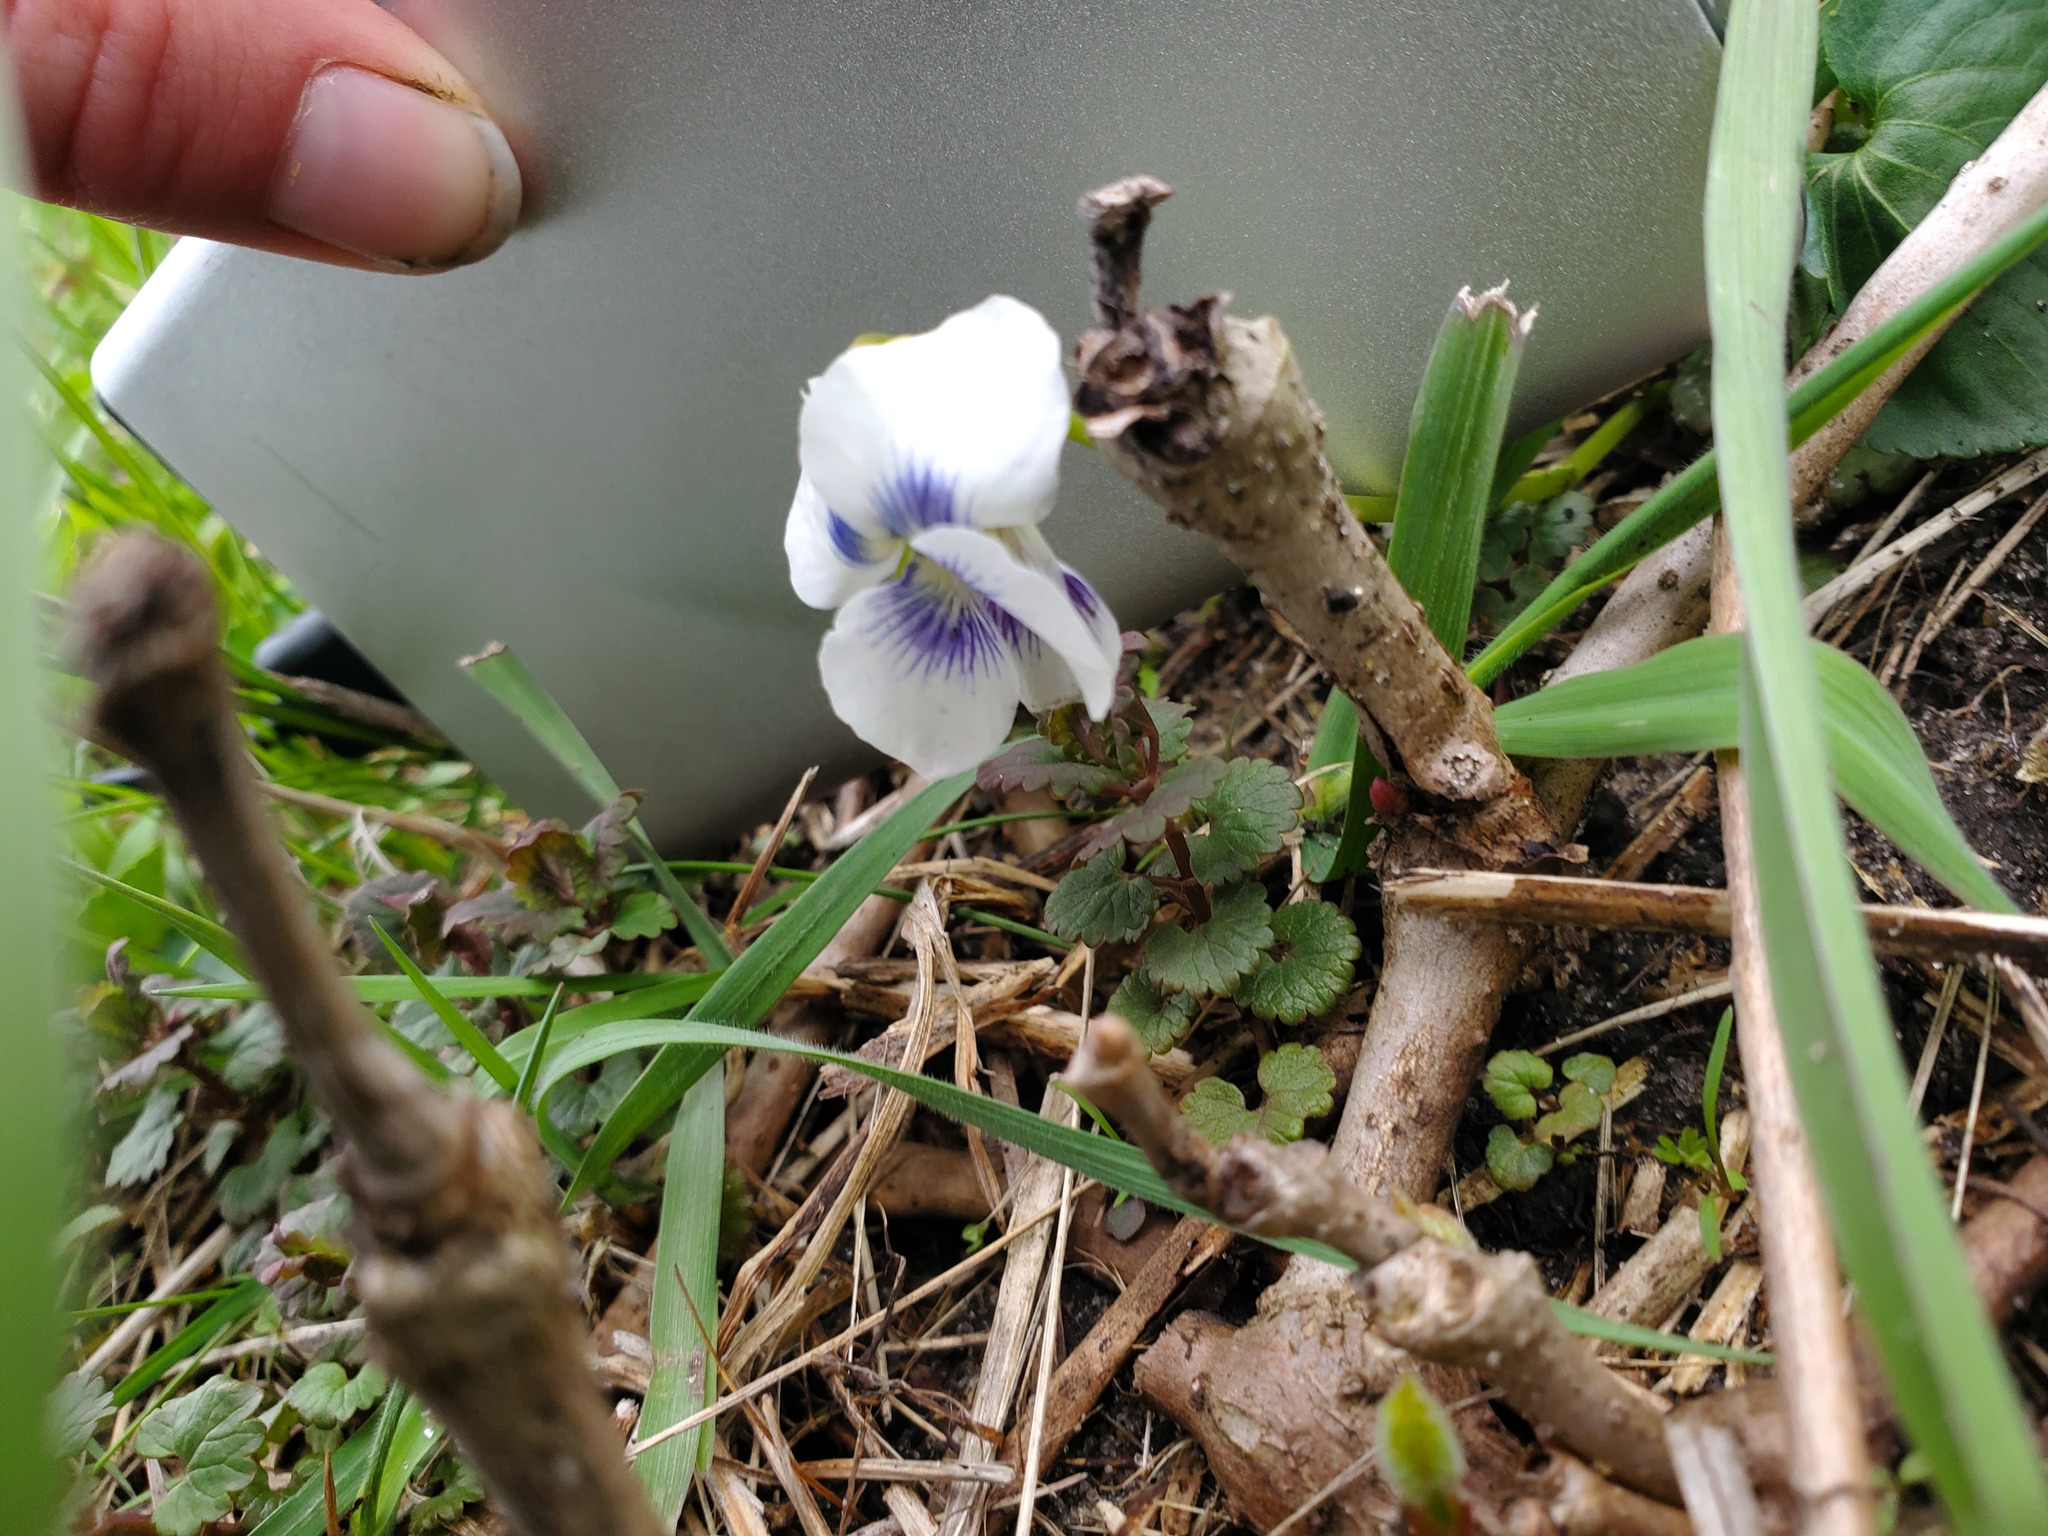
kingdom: Plantae
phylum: Tracheophyta
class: Magnoliopsida
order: Malpighiales
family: Violaceae
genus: Viola
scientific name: Viola sororia
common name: Dooryard violet
